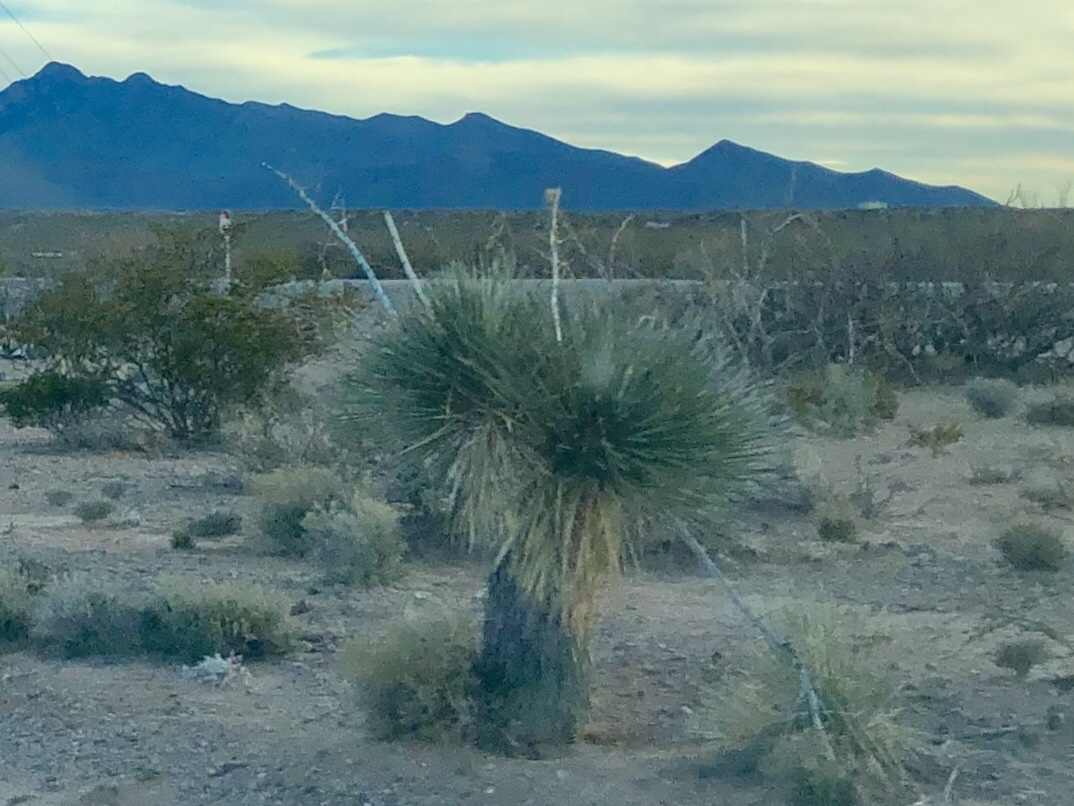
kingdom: Plantae
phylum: Tracheophyta
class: Liliopsida
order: Asparagales
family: Asparagaceae
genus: Yucca
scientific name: Yucca elata
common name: Palmella
